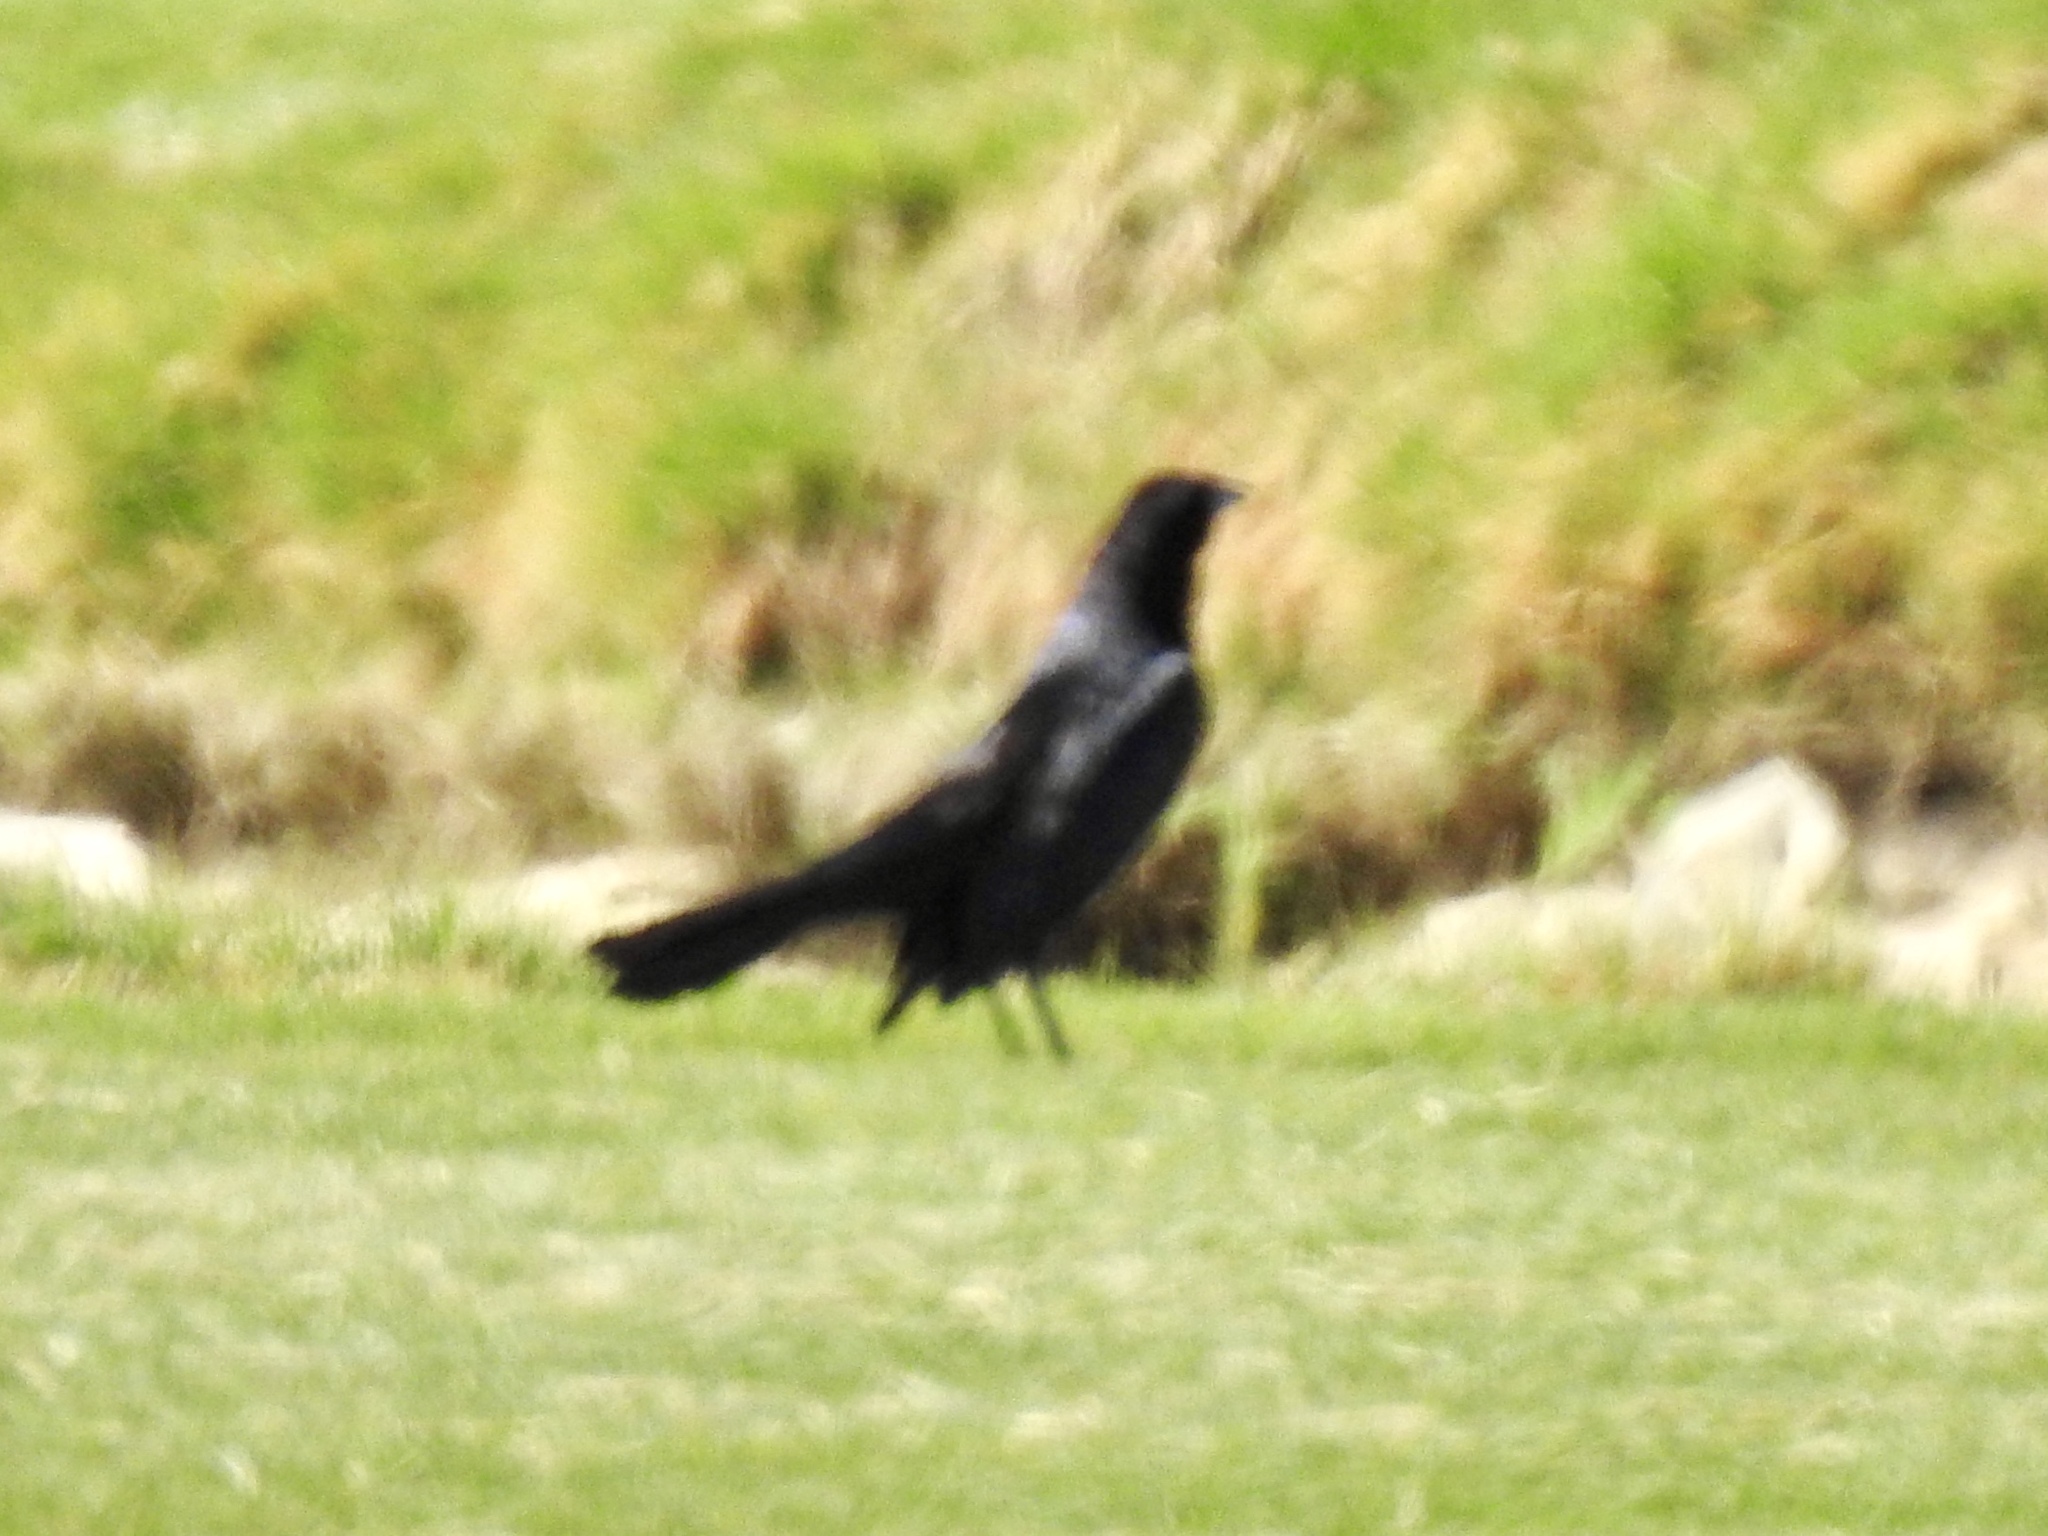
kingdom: Animalia
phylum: Chordata
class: Aves
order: Passeriformes
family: Icteridae
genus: Quiscalus
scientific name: Quiscalus mexicanus
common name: Great-tailed grackle
